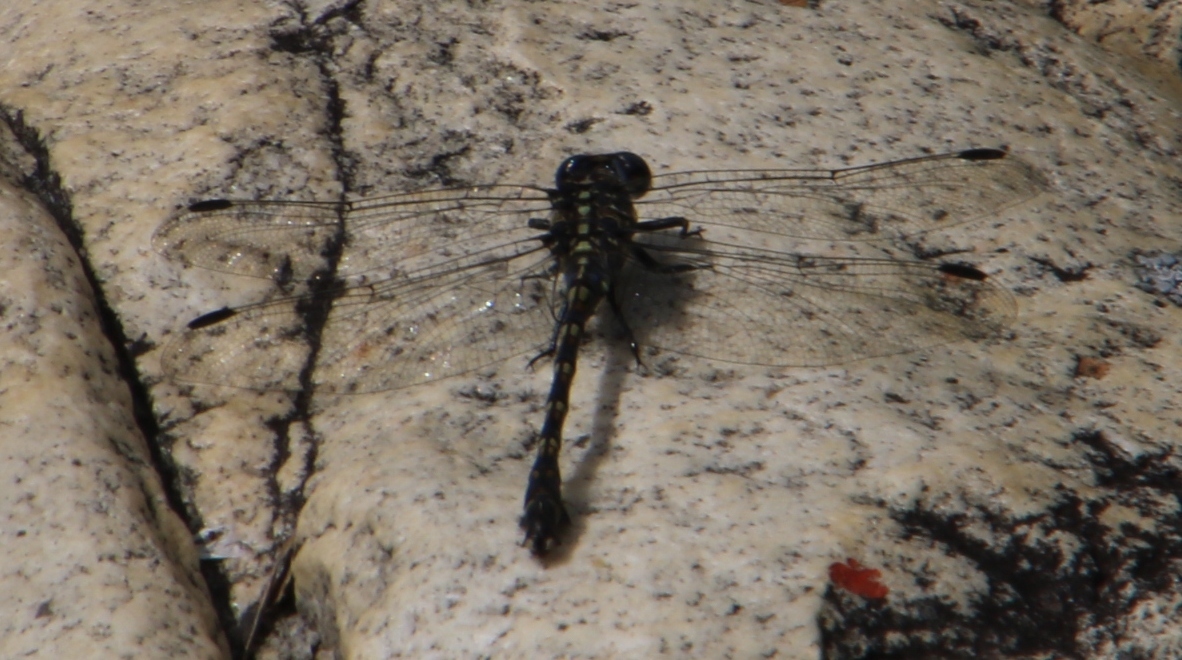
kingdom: Animalia
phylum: Arthropoda
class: Insecta
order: Odonata
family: Gomphidae
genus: Ceratogomphus
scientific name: Ceratogomphus triceraticus
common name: Cape thorntail
